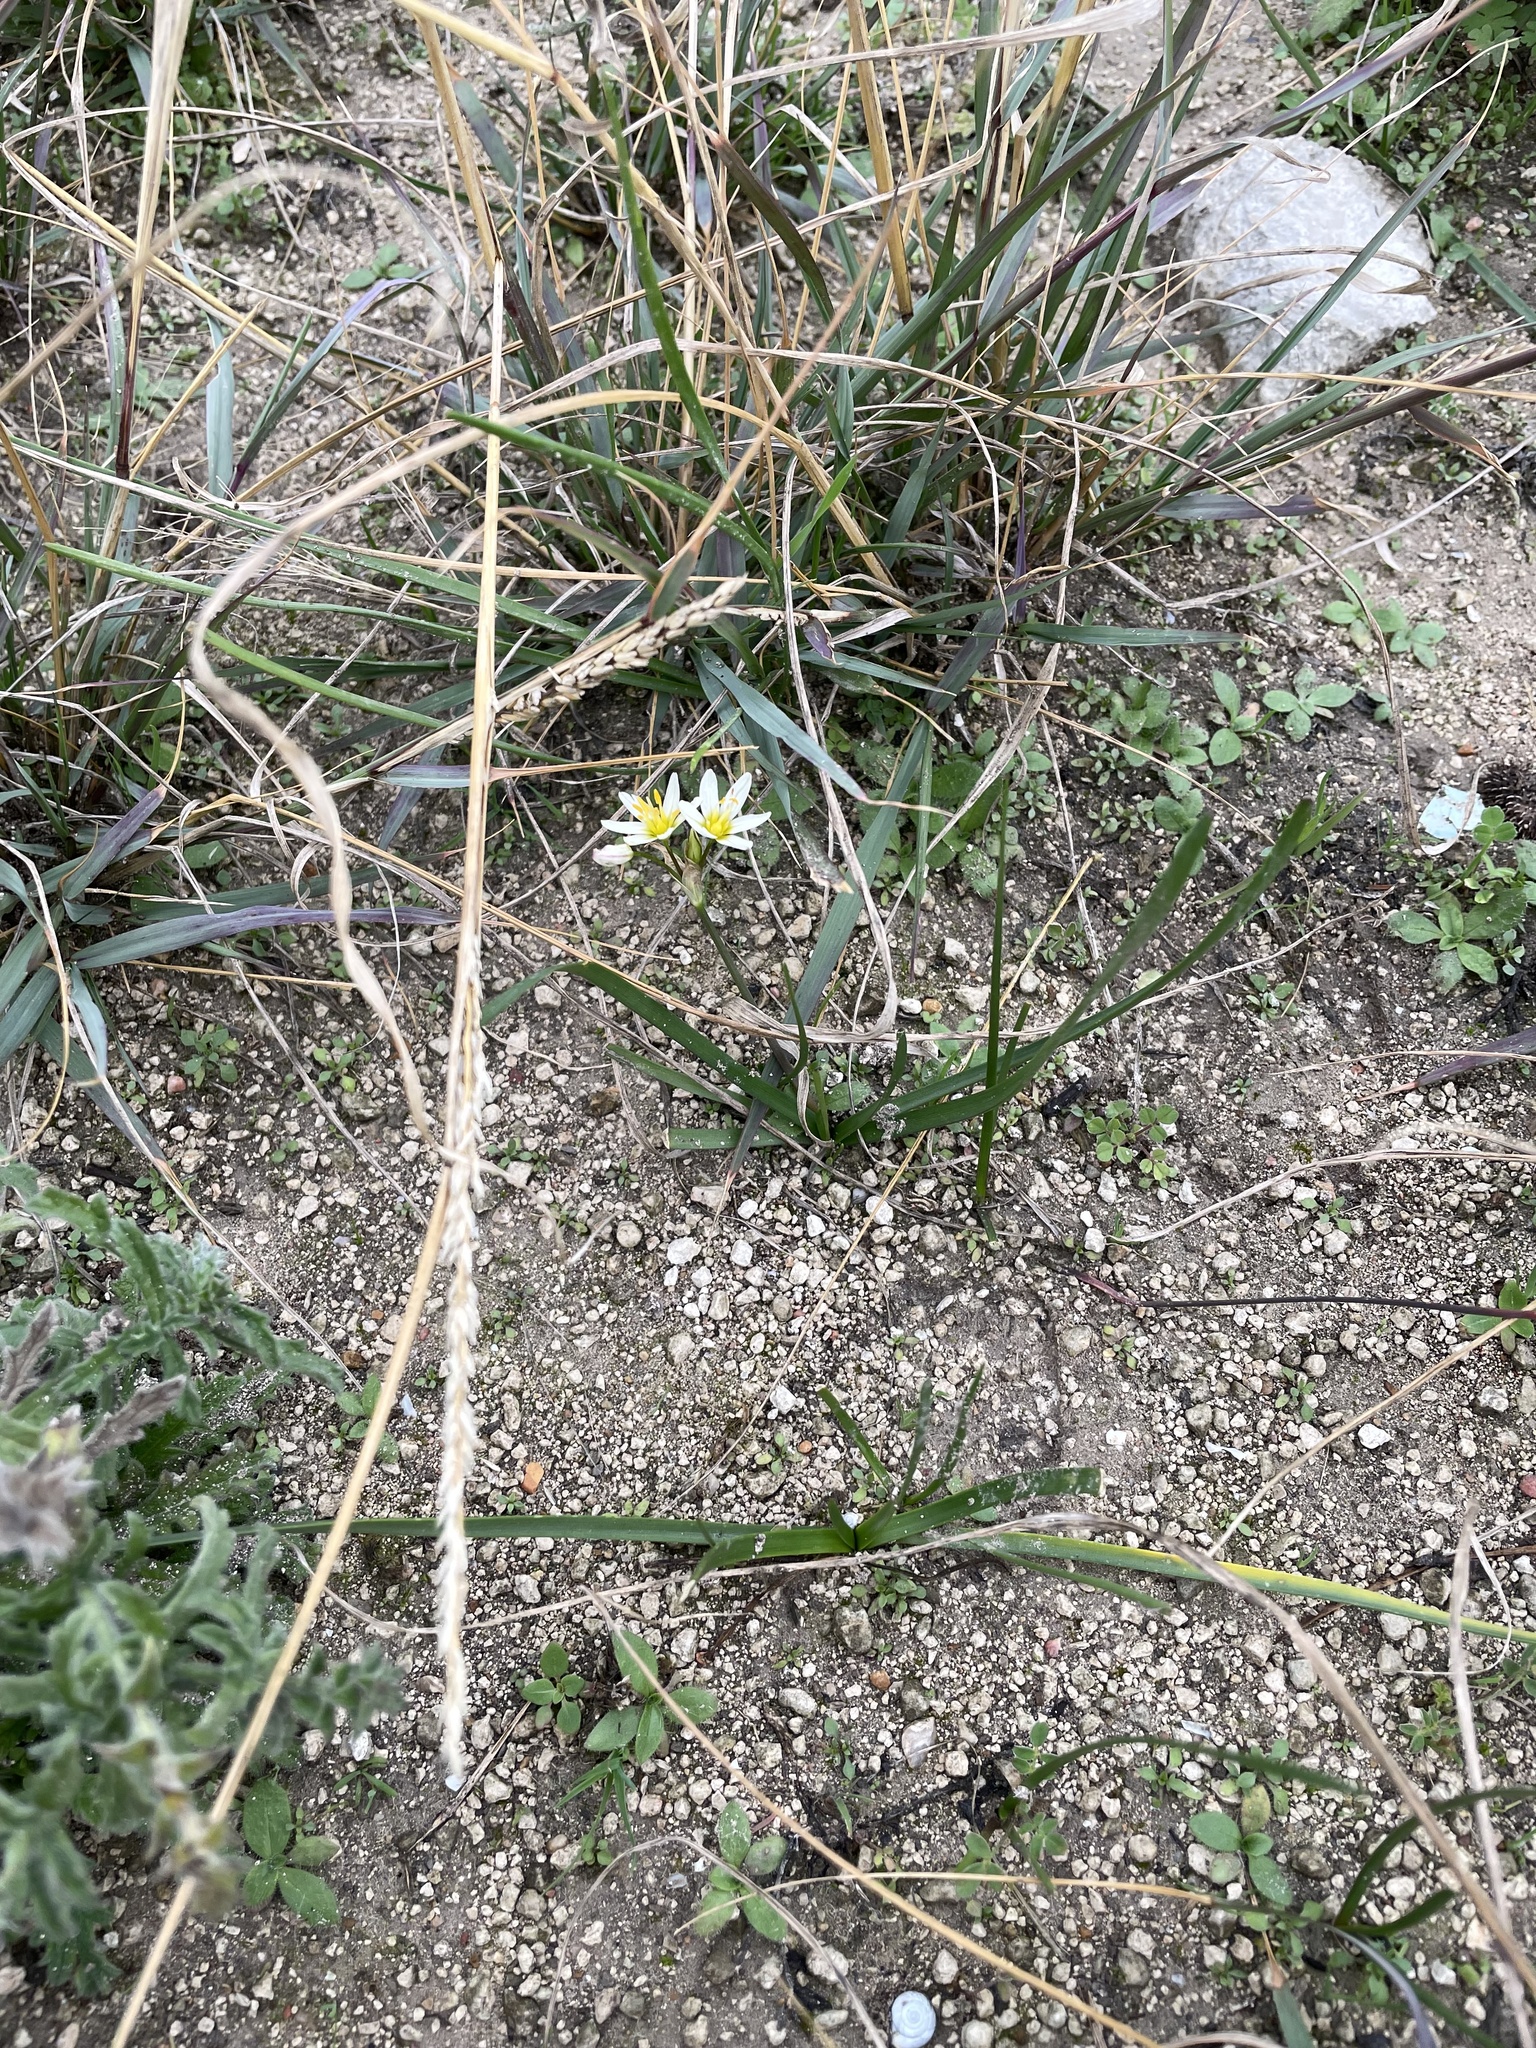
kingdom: Plantae
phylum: Tracheophyta
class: Liliopsida
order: Asparagales
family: Amaryllidaceae
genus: Nothoscordum
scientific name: Nothoscordum bivalve
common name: Crow-poison
